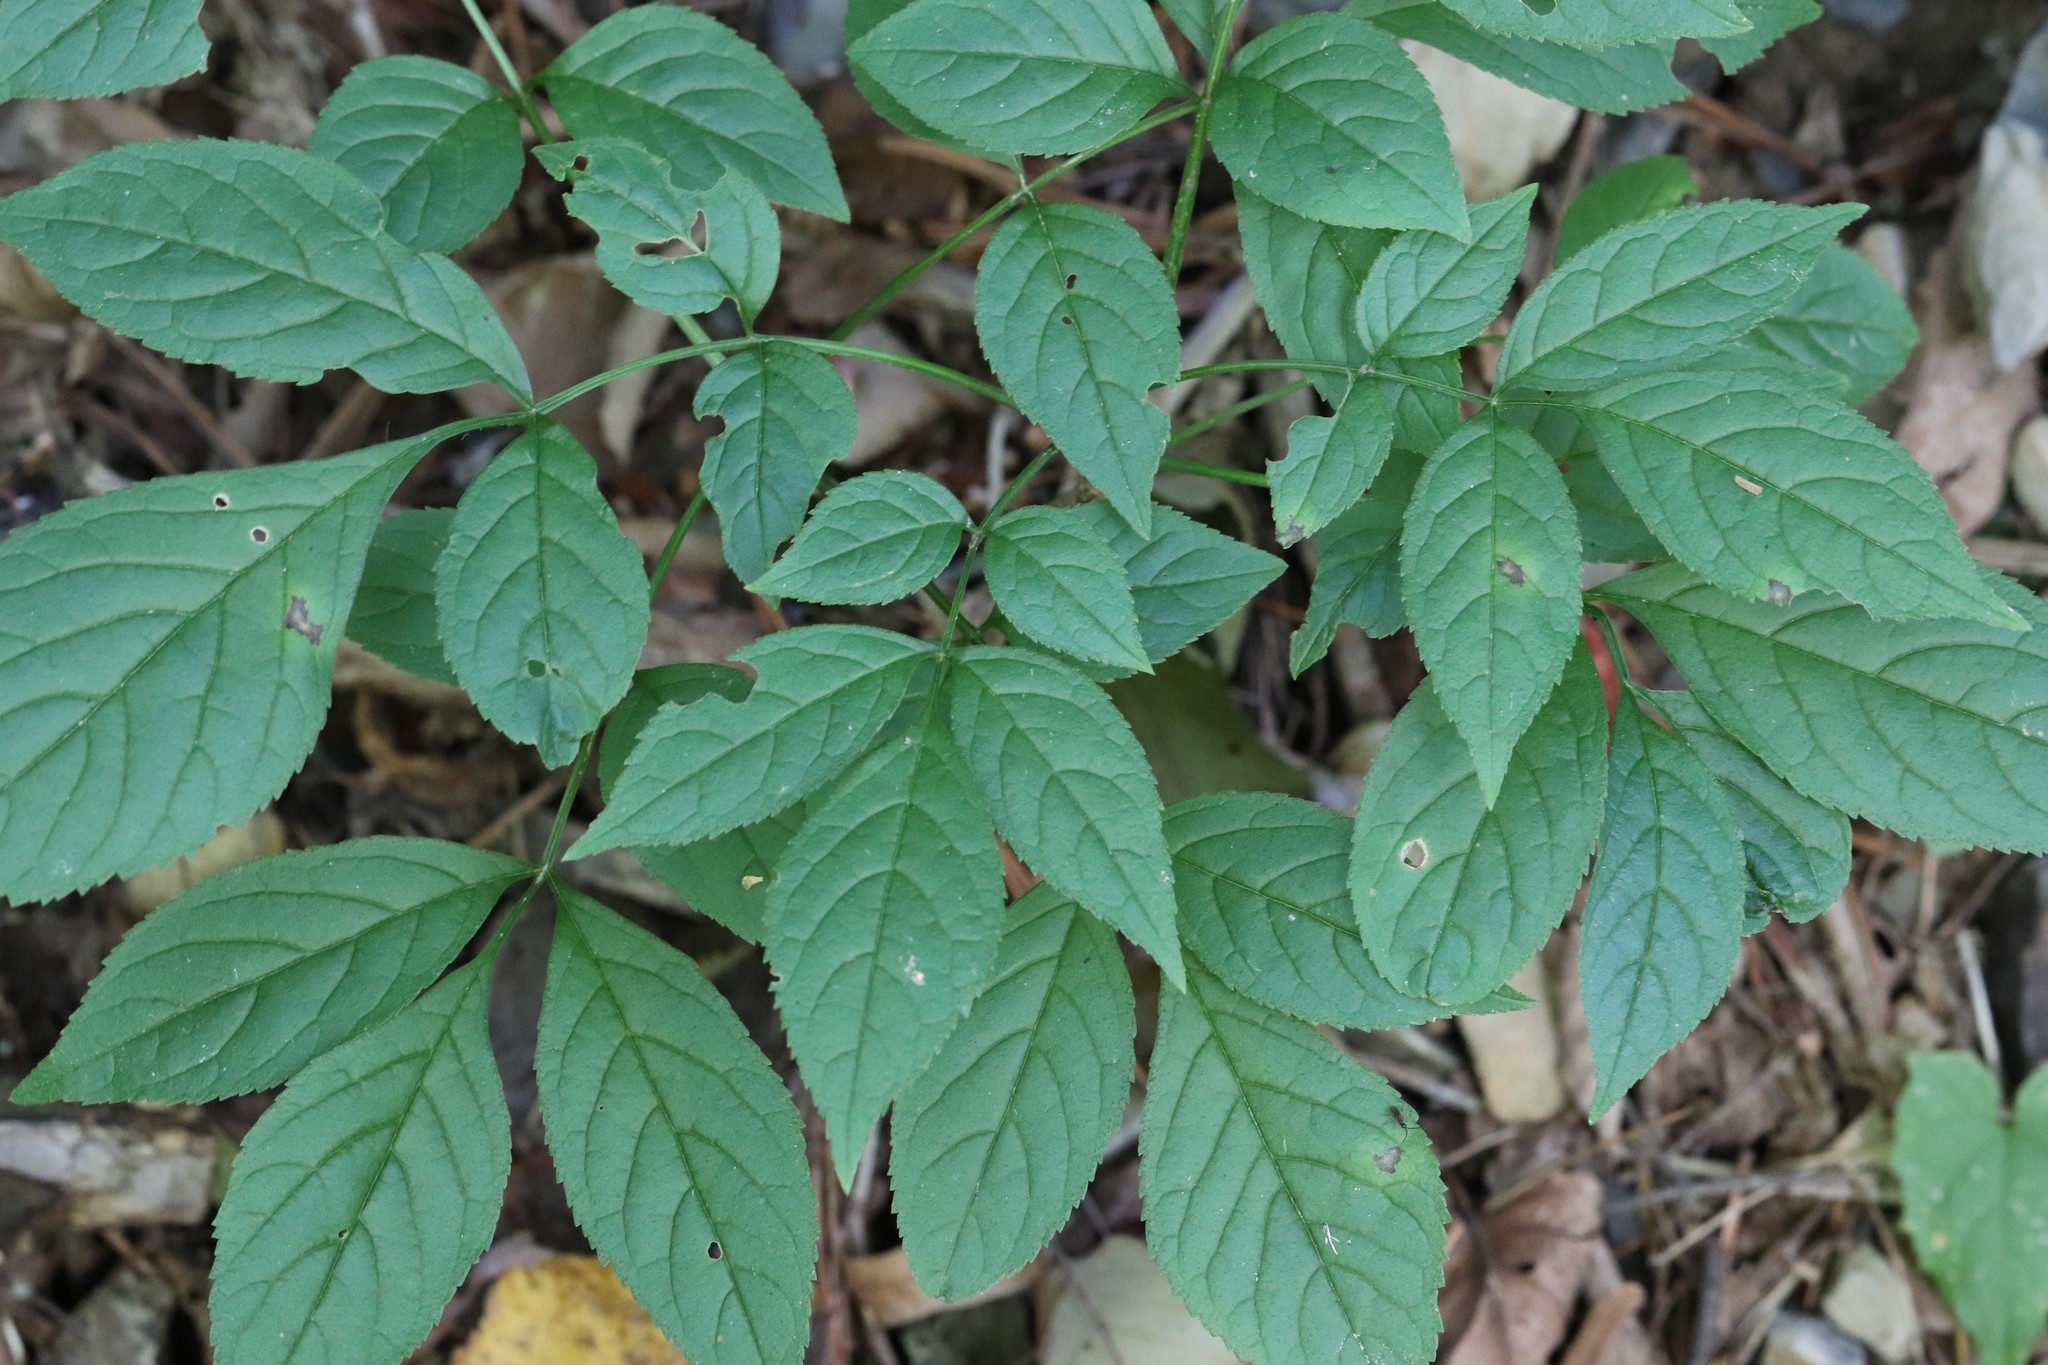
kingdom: Plantae
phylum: Tracheophyta
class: Magnoliopsida
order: Lamiales
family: Oleaceae
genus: Fraxinus
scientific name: Fraxinus mandshurica
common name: Manchurian ash
